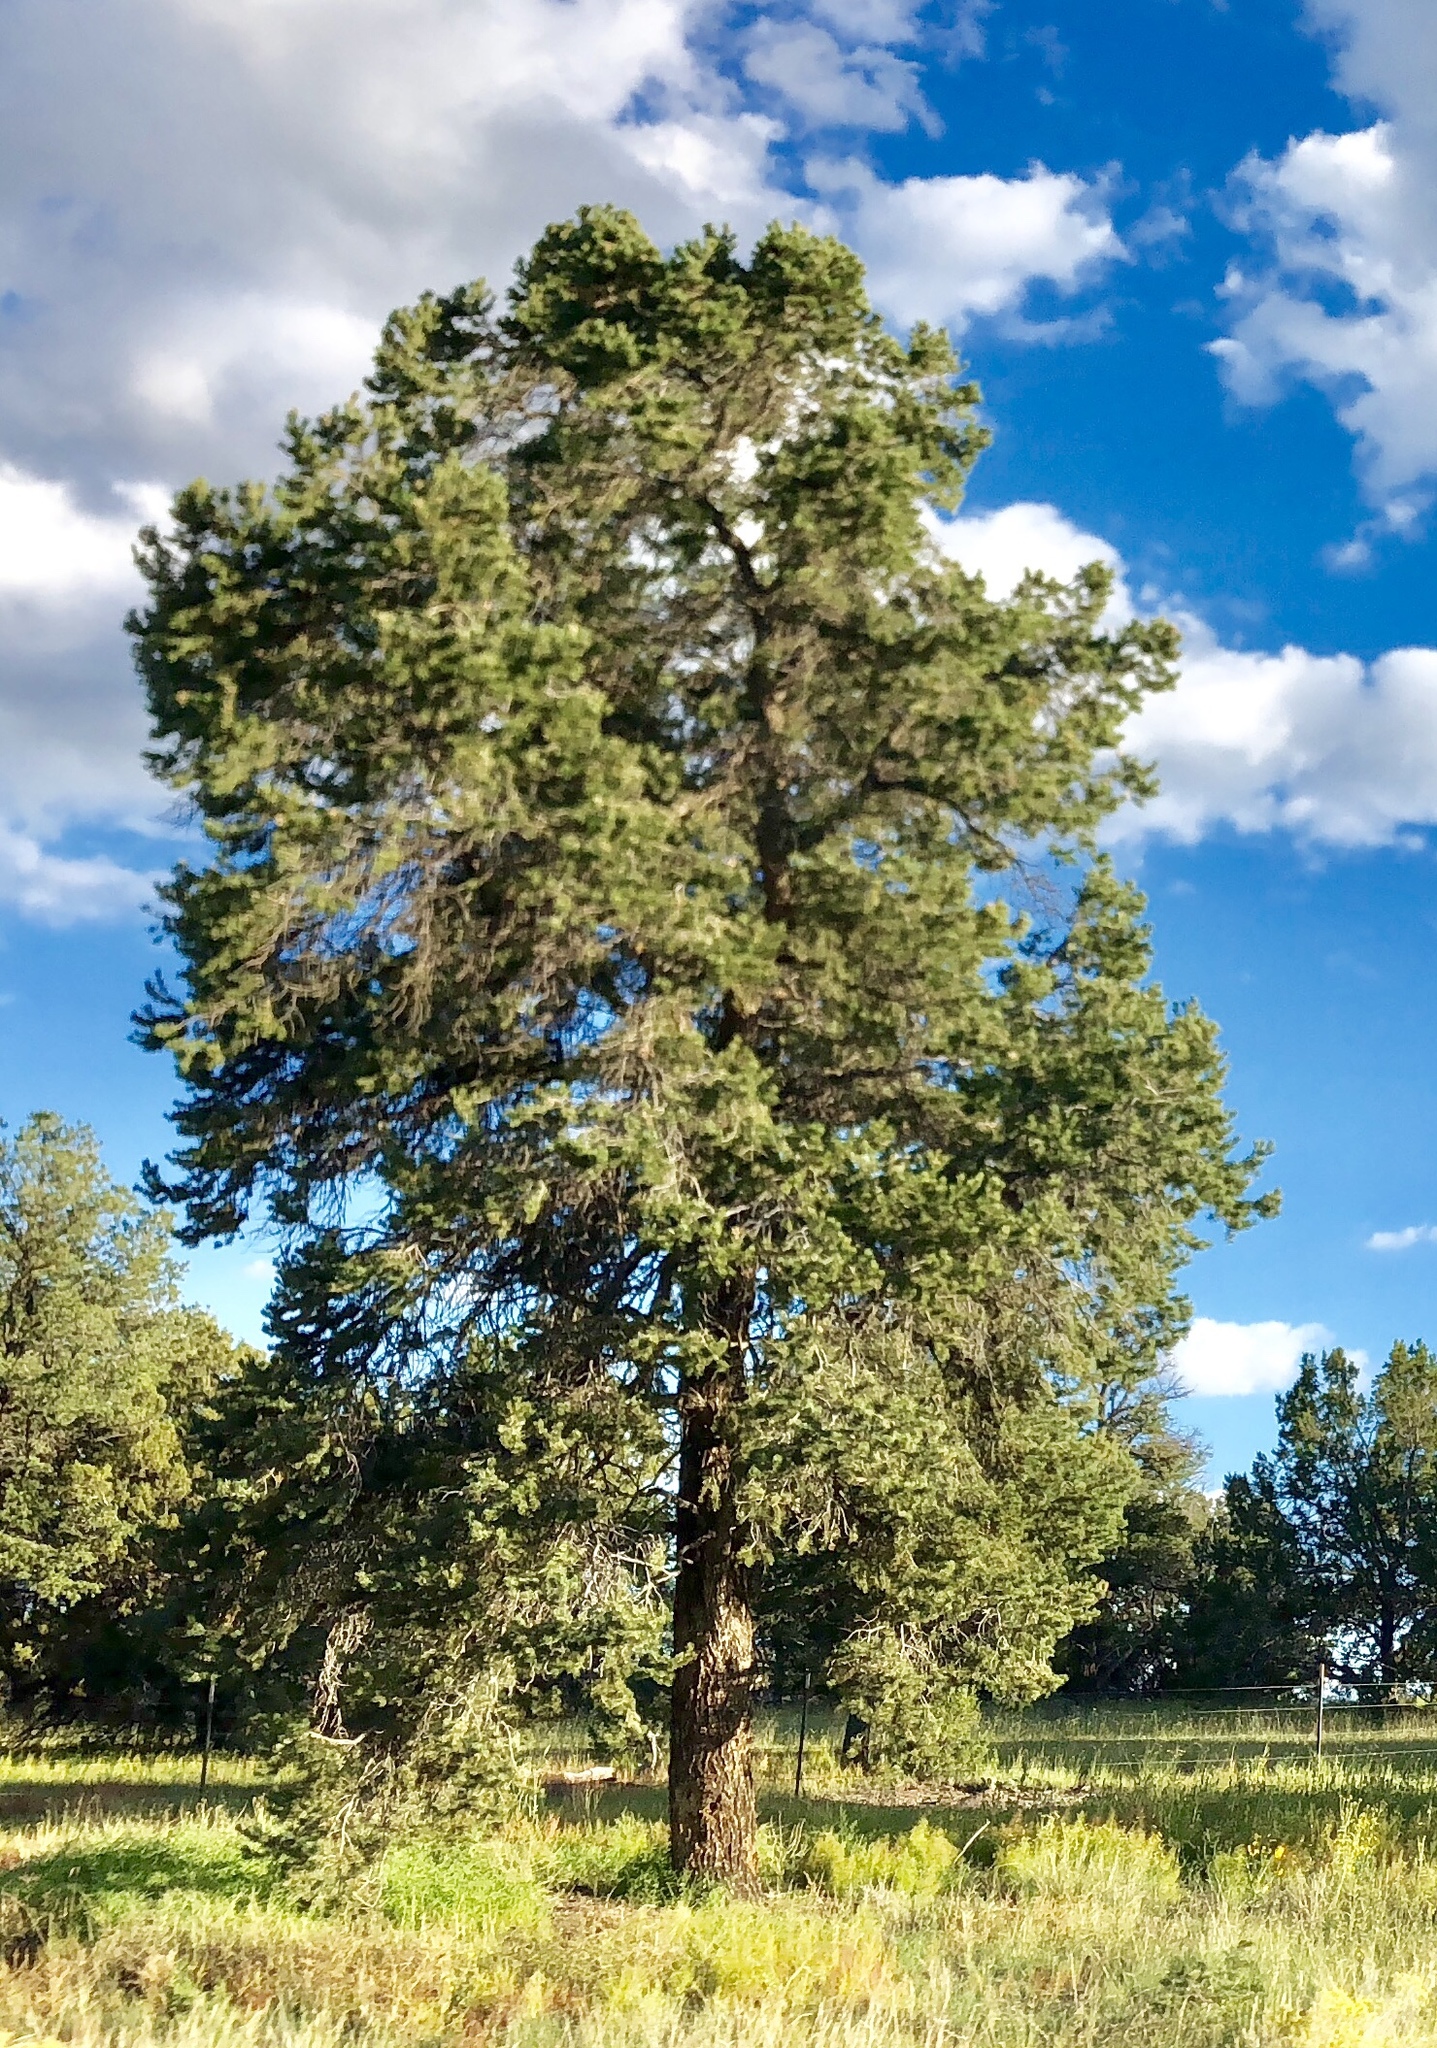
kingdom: Plantae
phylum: Tracheophyta
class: Pinopsida
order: Pinales
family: Pinaceae
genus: Pinus
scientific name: Pinus ponderosa
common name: Western yellow-pine
